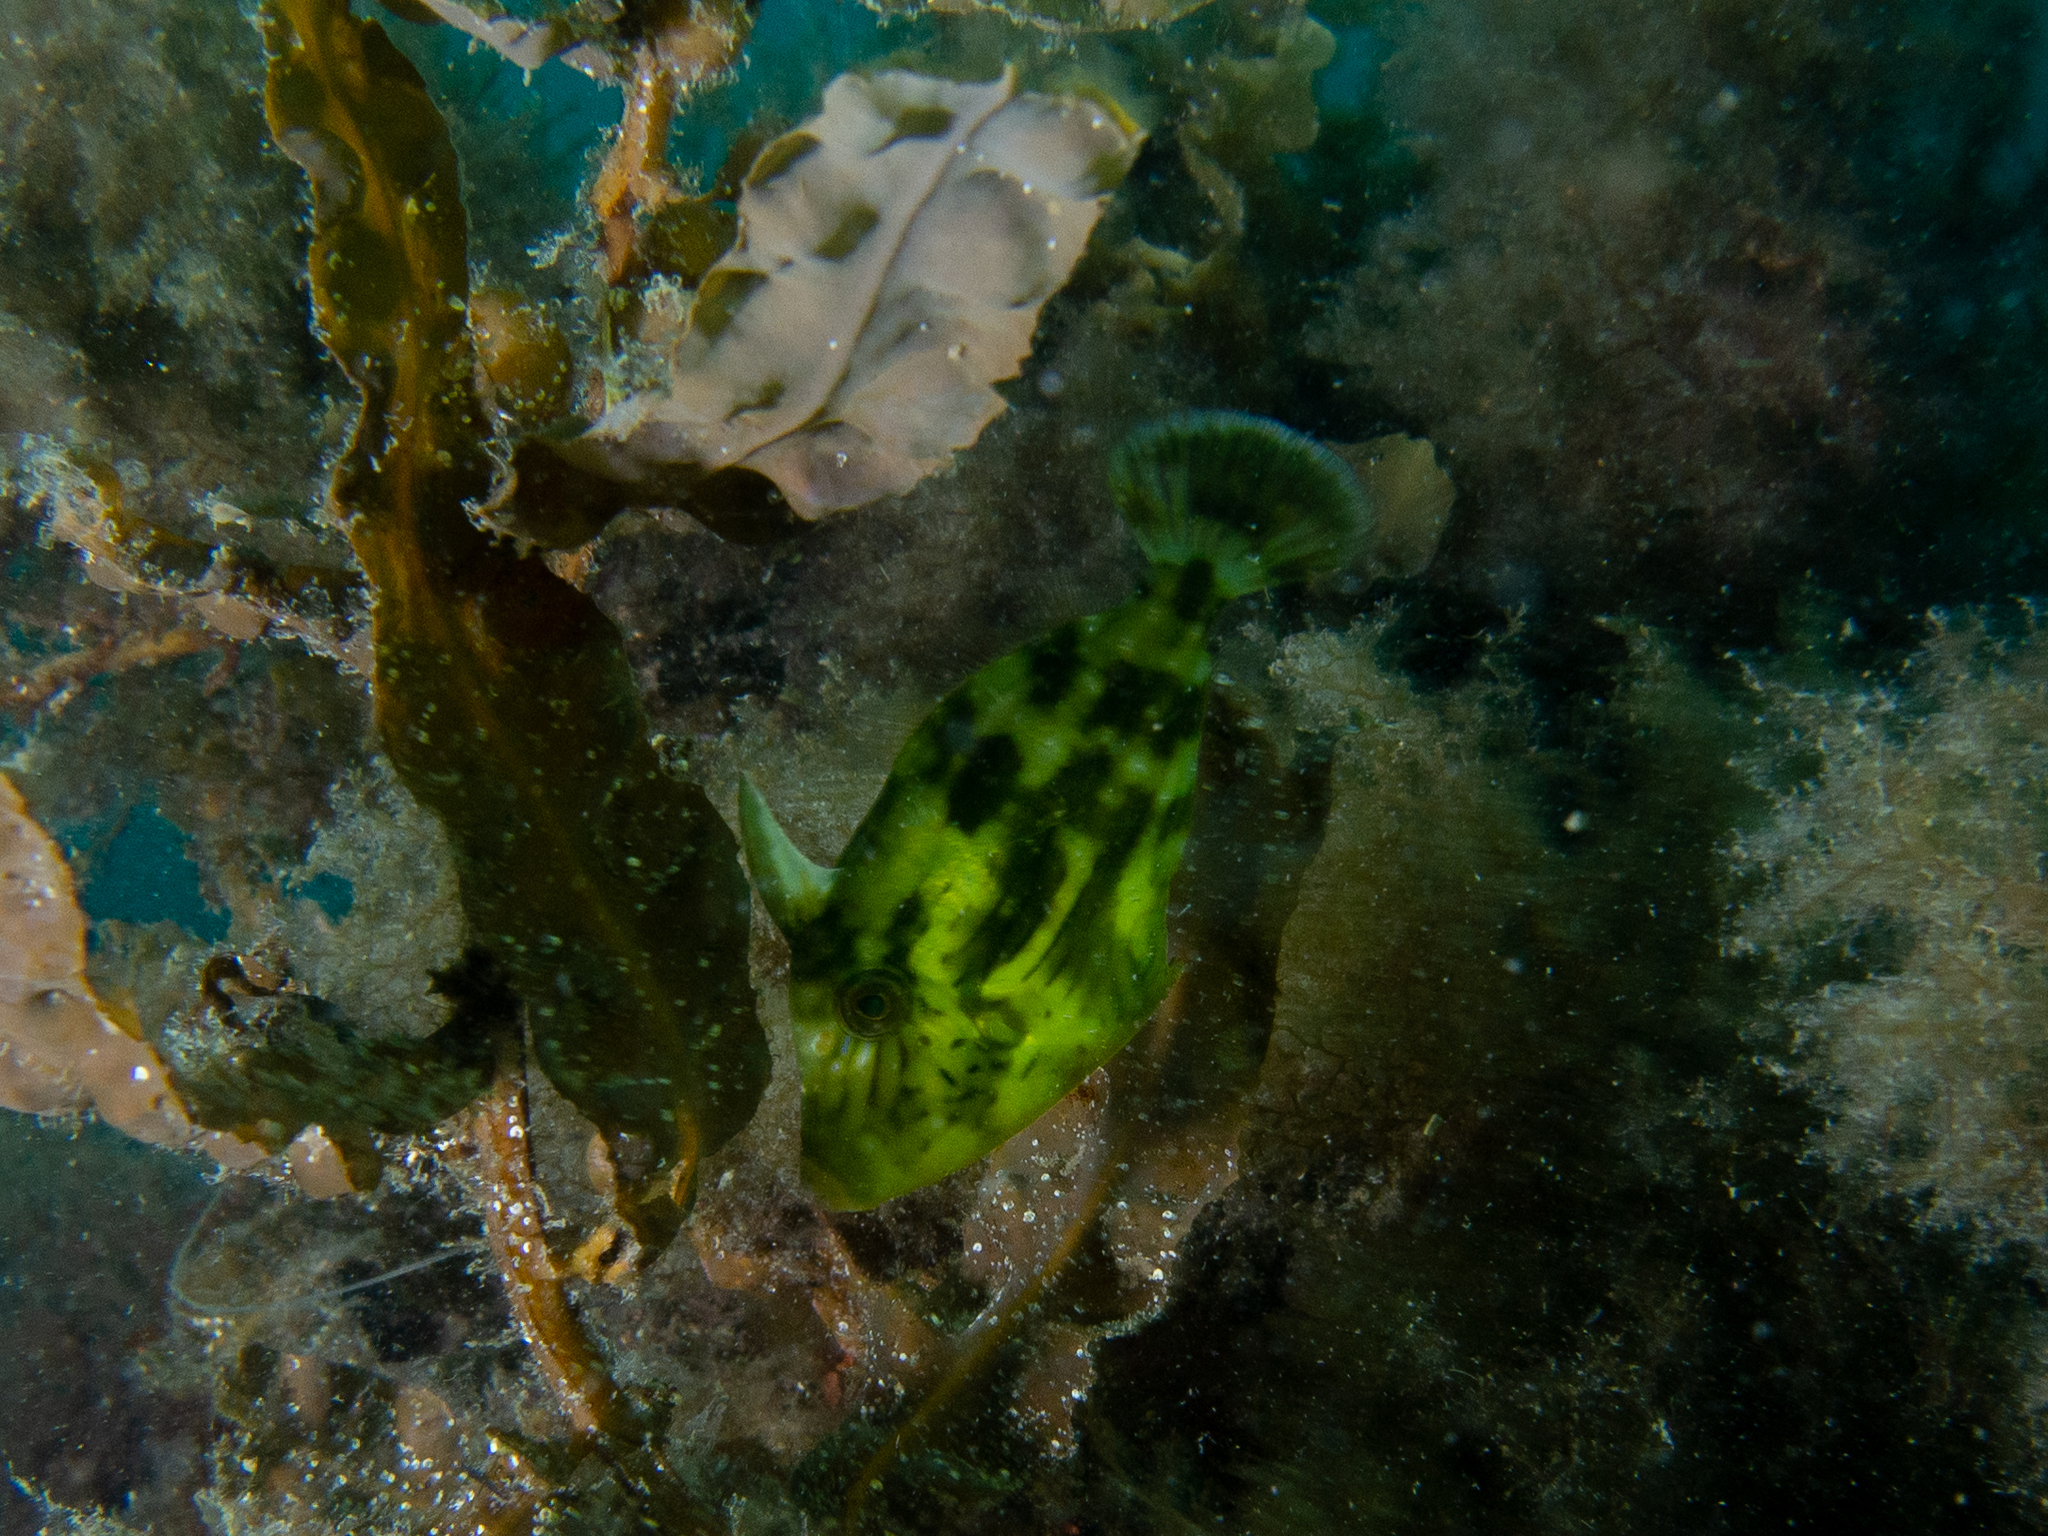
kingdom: Animalia
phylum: Chordata
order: Tetraodontiformes
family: Monacanthidae
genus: Meuschenia
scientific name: Meuschenia freycineti
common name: Freycinet's leatherjacket
